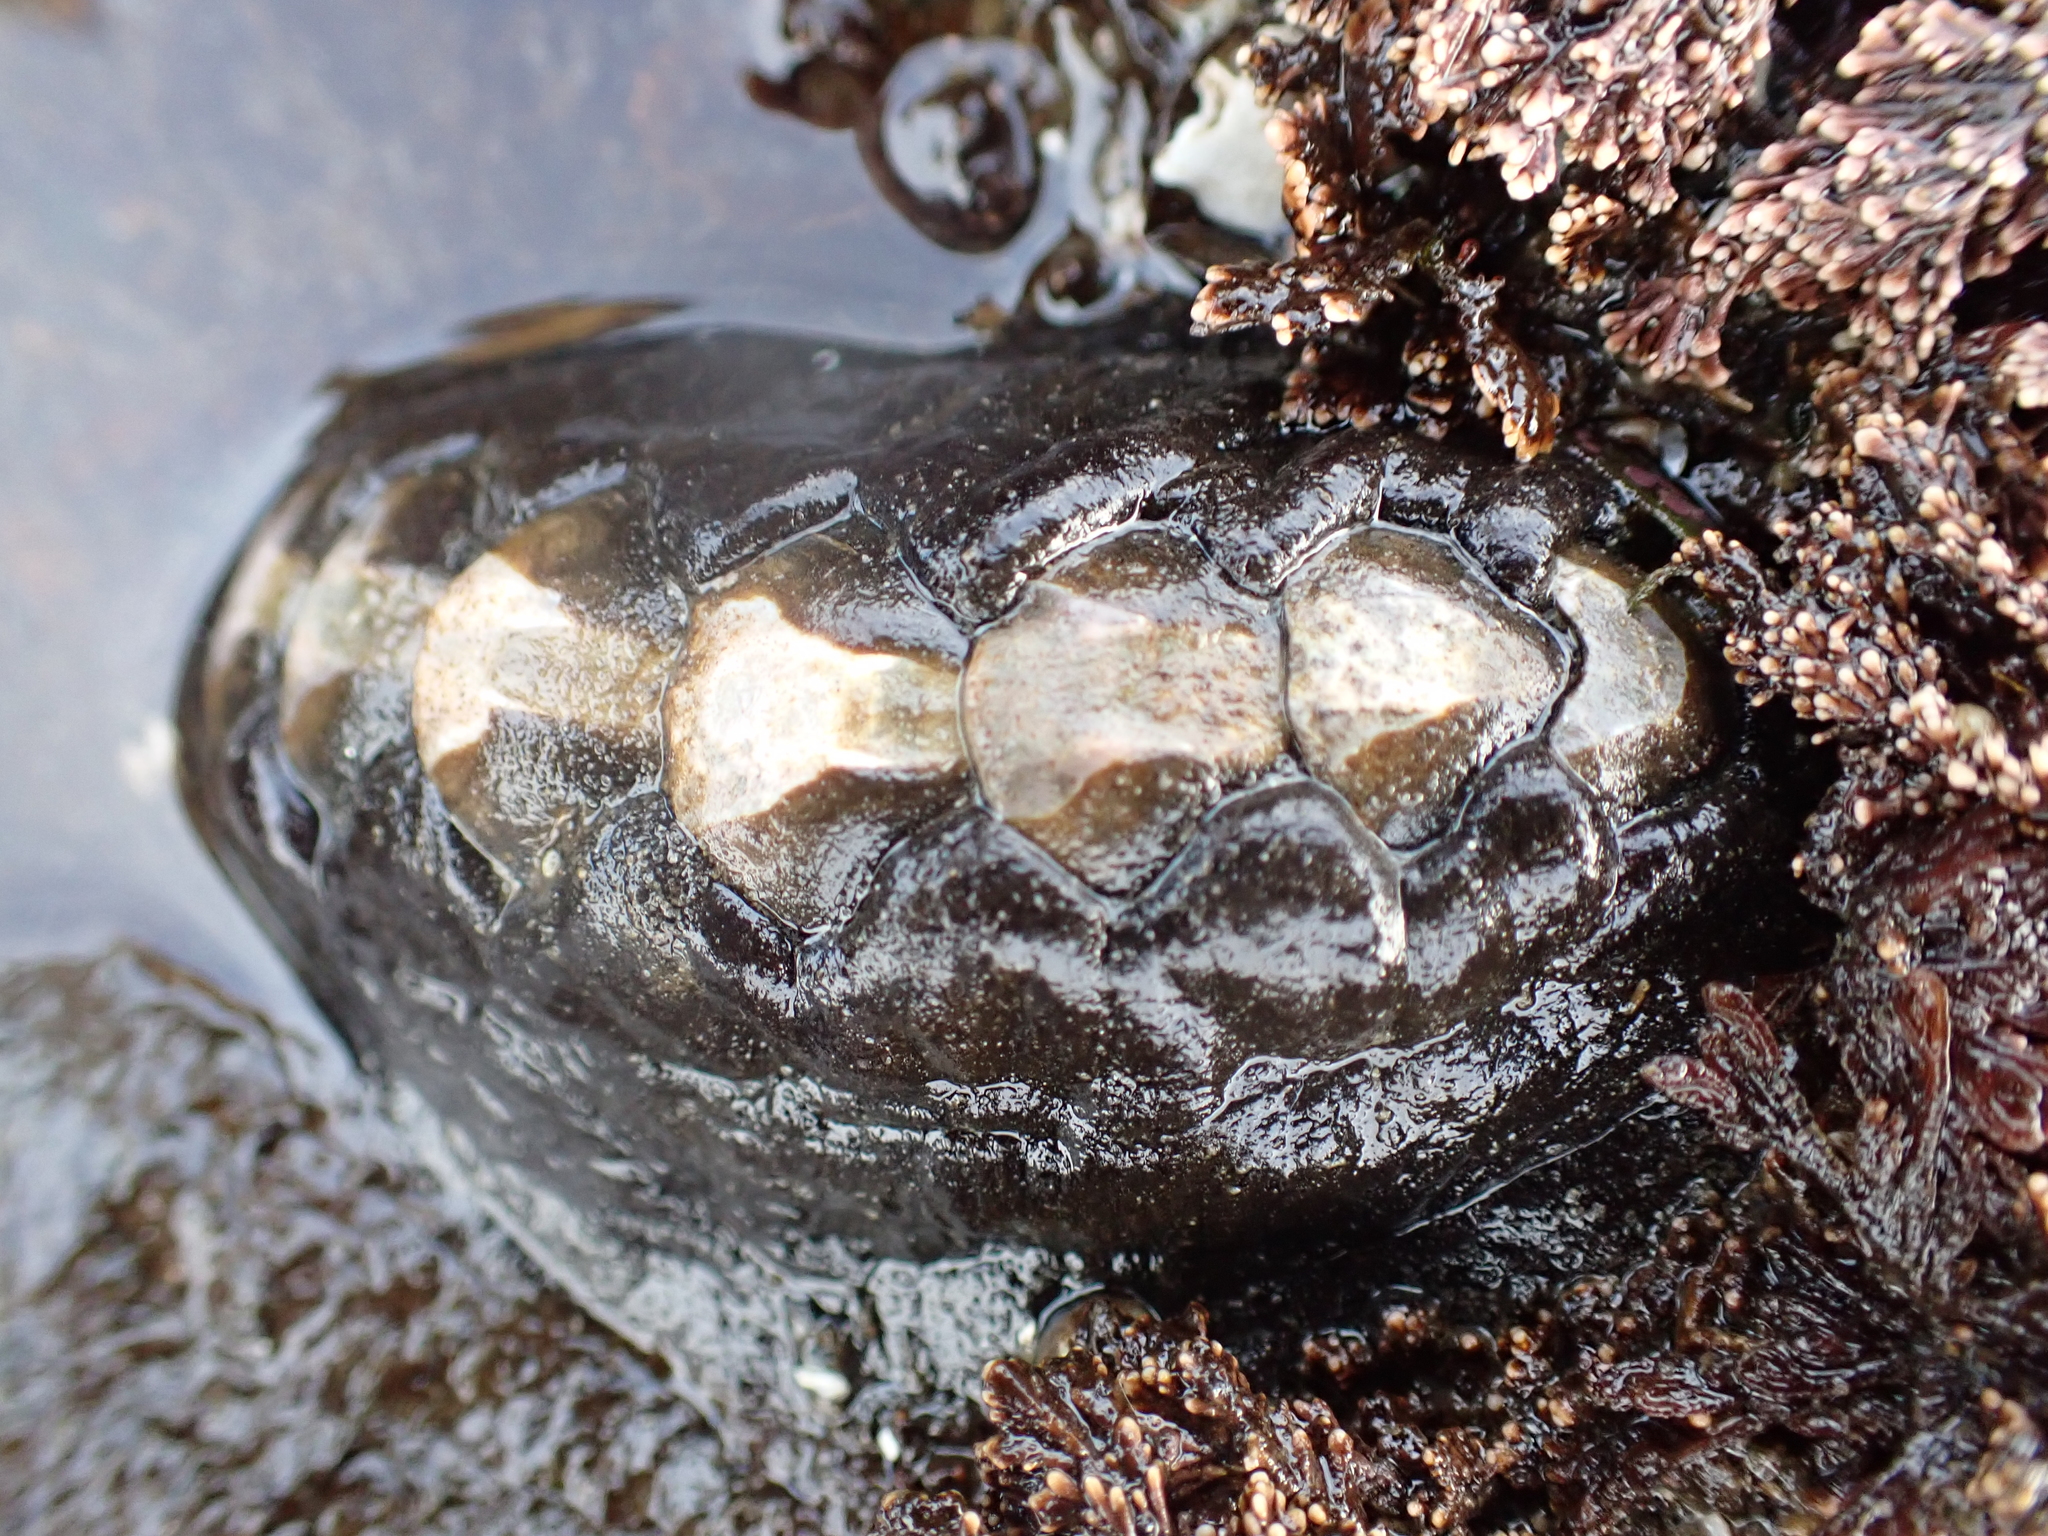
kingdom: Animalia
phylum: Mollusca
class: Polyplacophora
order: Chitonida
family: Mopaliidae
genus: Katharina
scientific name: Katharina tunicata
